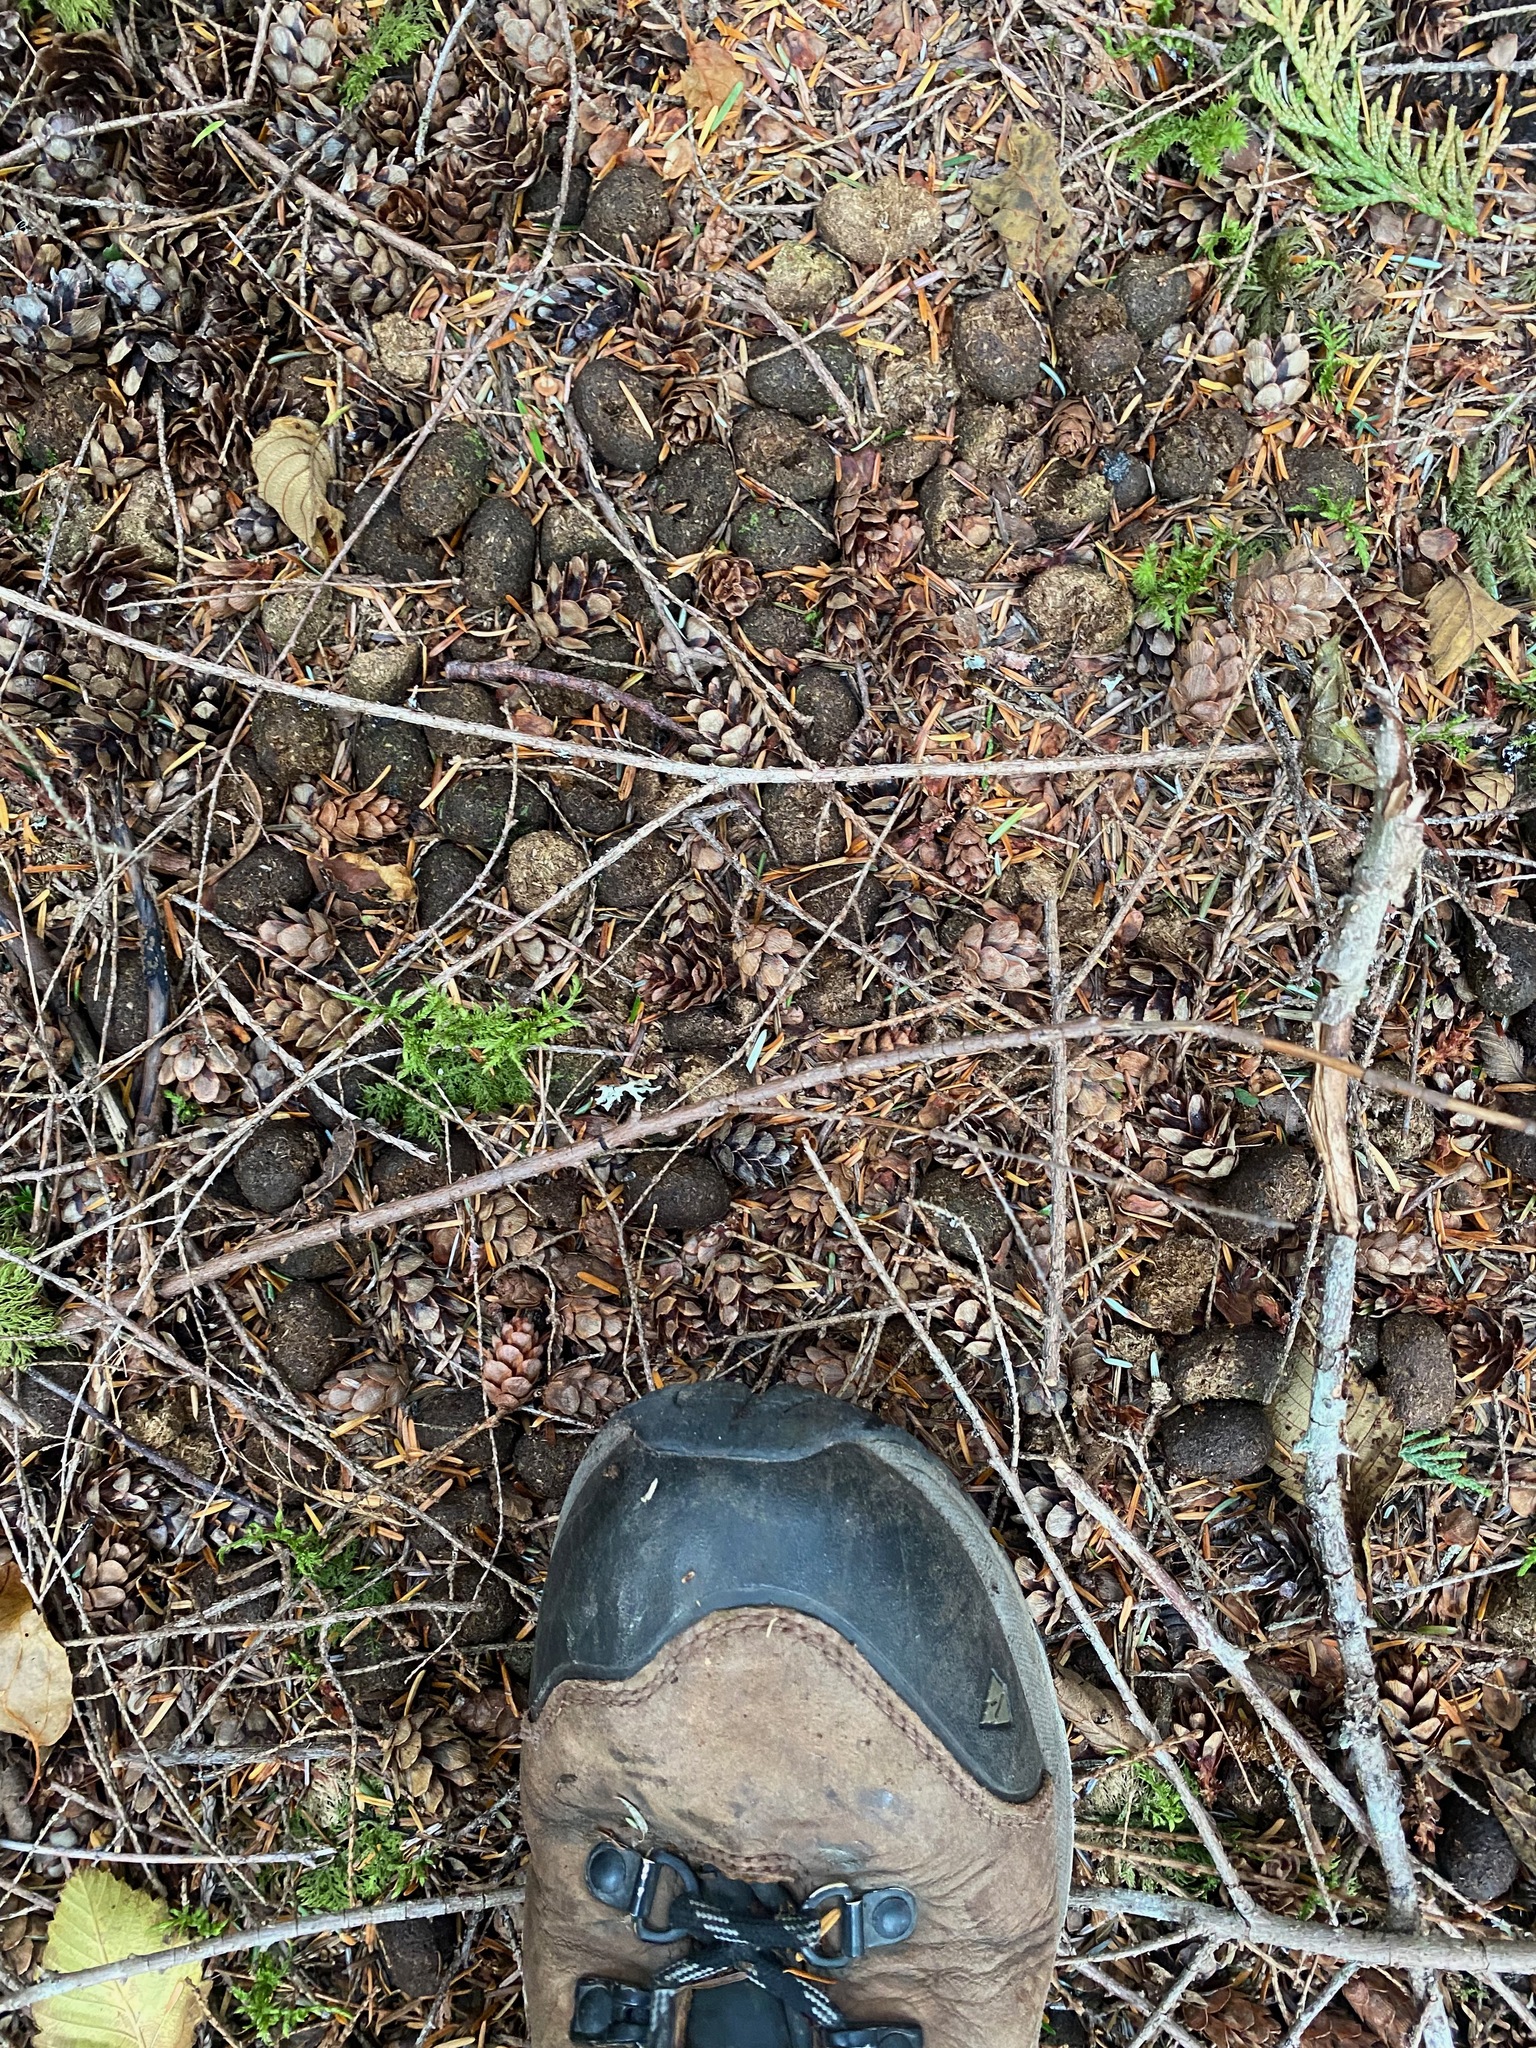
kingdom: Animalia
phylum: Chordata
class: Mammalia
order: Artiodactyla
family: Cervidae
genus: Alces
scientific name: Alces alces
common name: Moose
